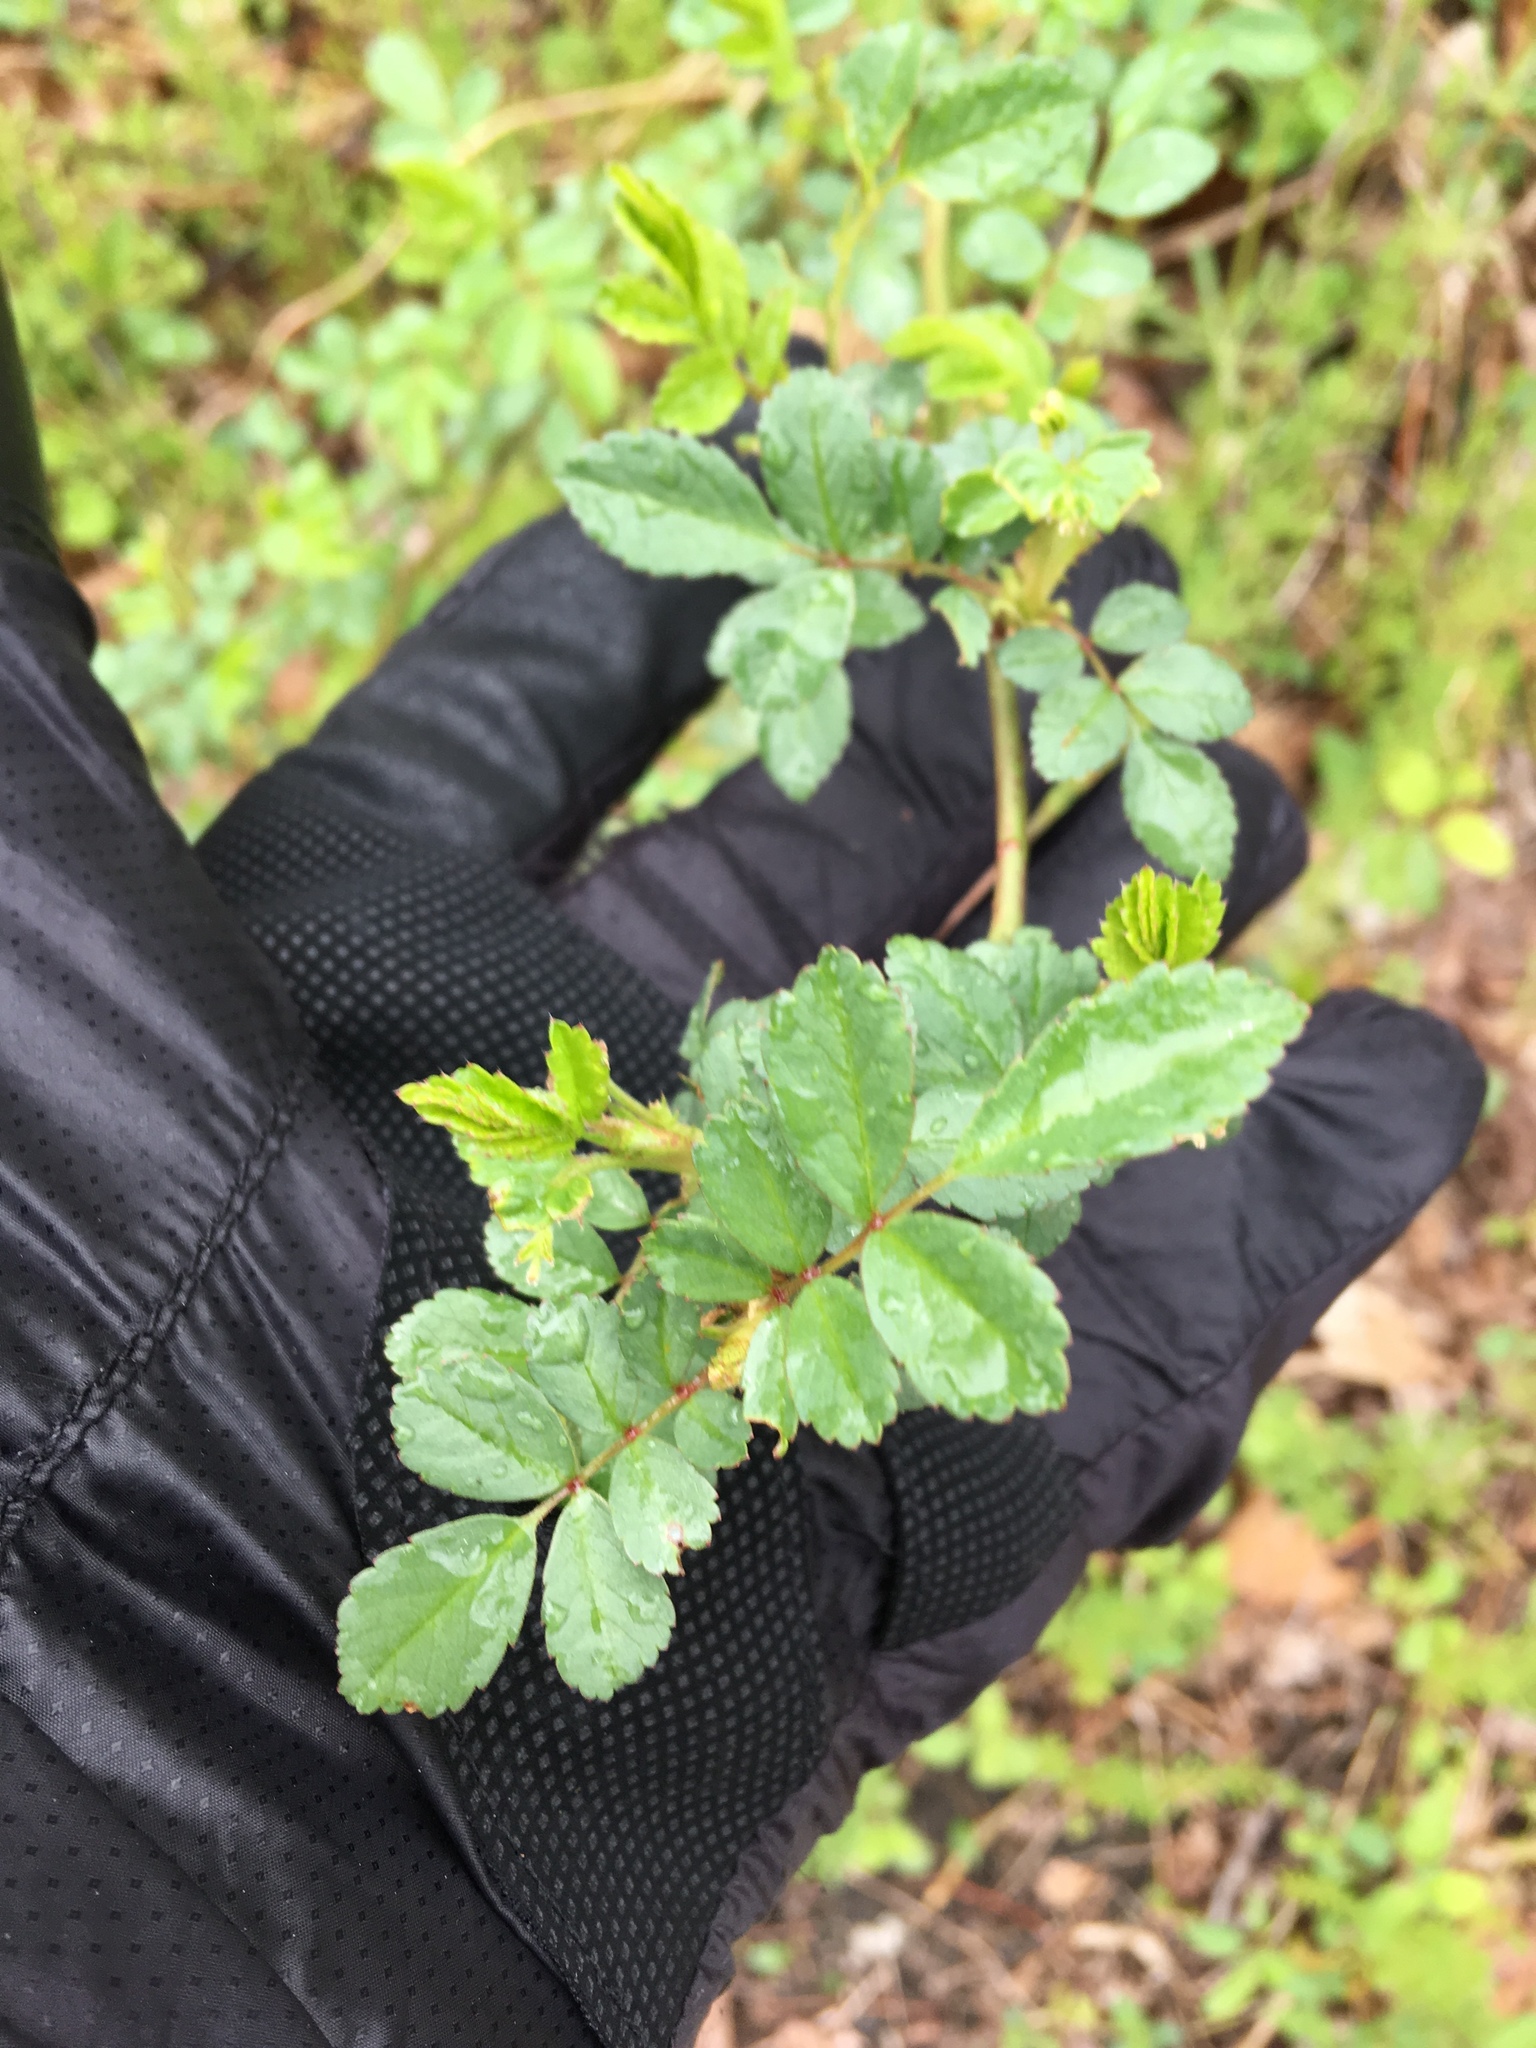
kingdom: Plantae
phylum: Tracheophyta
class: Magnoliopsida
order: Rosales
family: Rosaceae
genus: Rosa
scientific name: Rosa multiflora
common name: Multiflora rose
